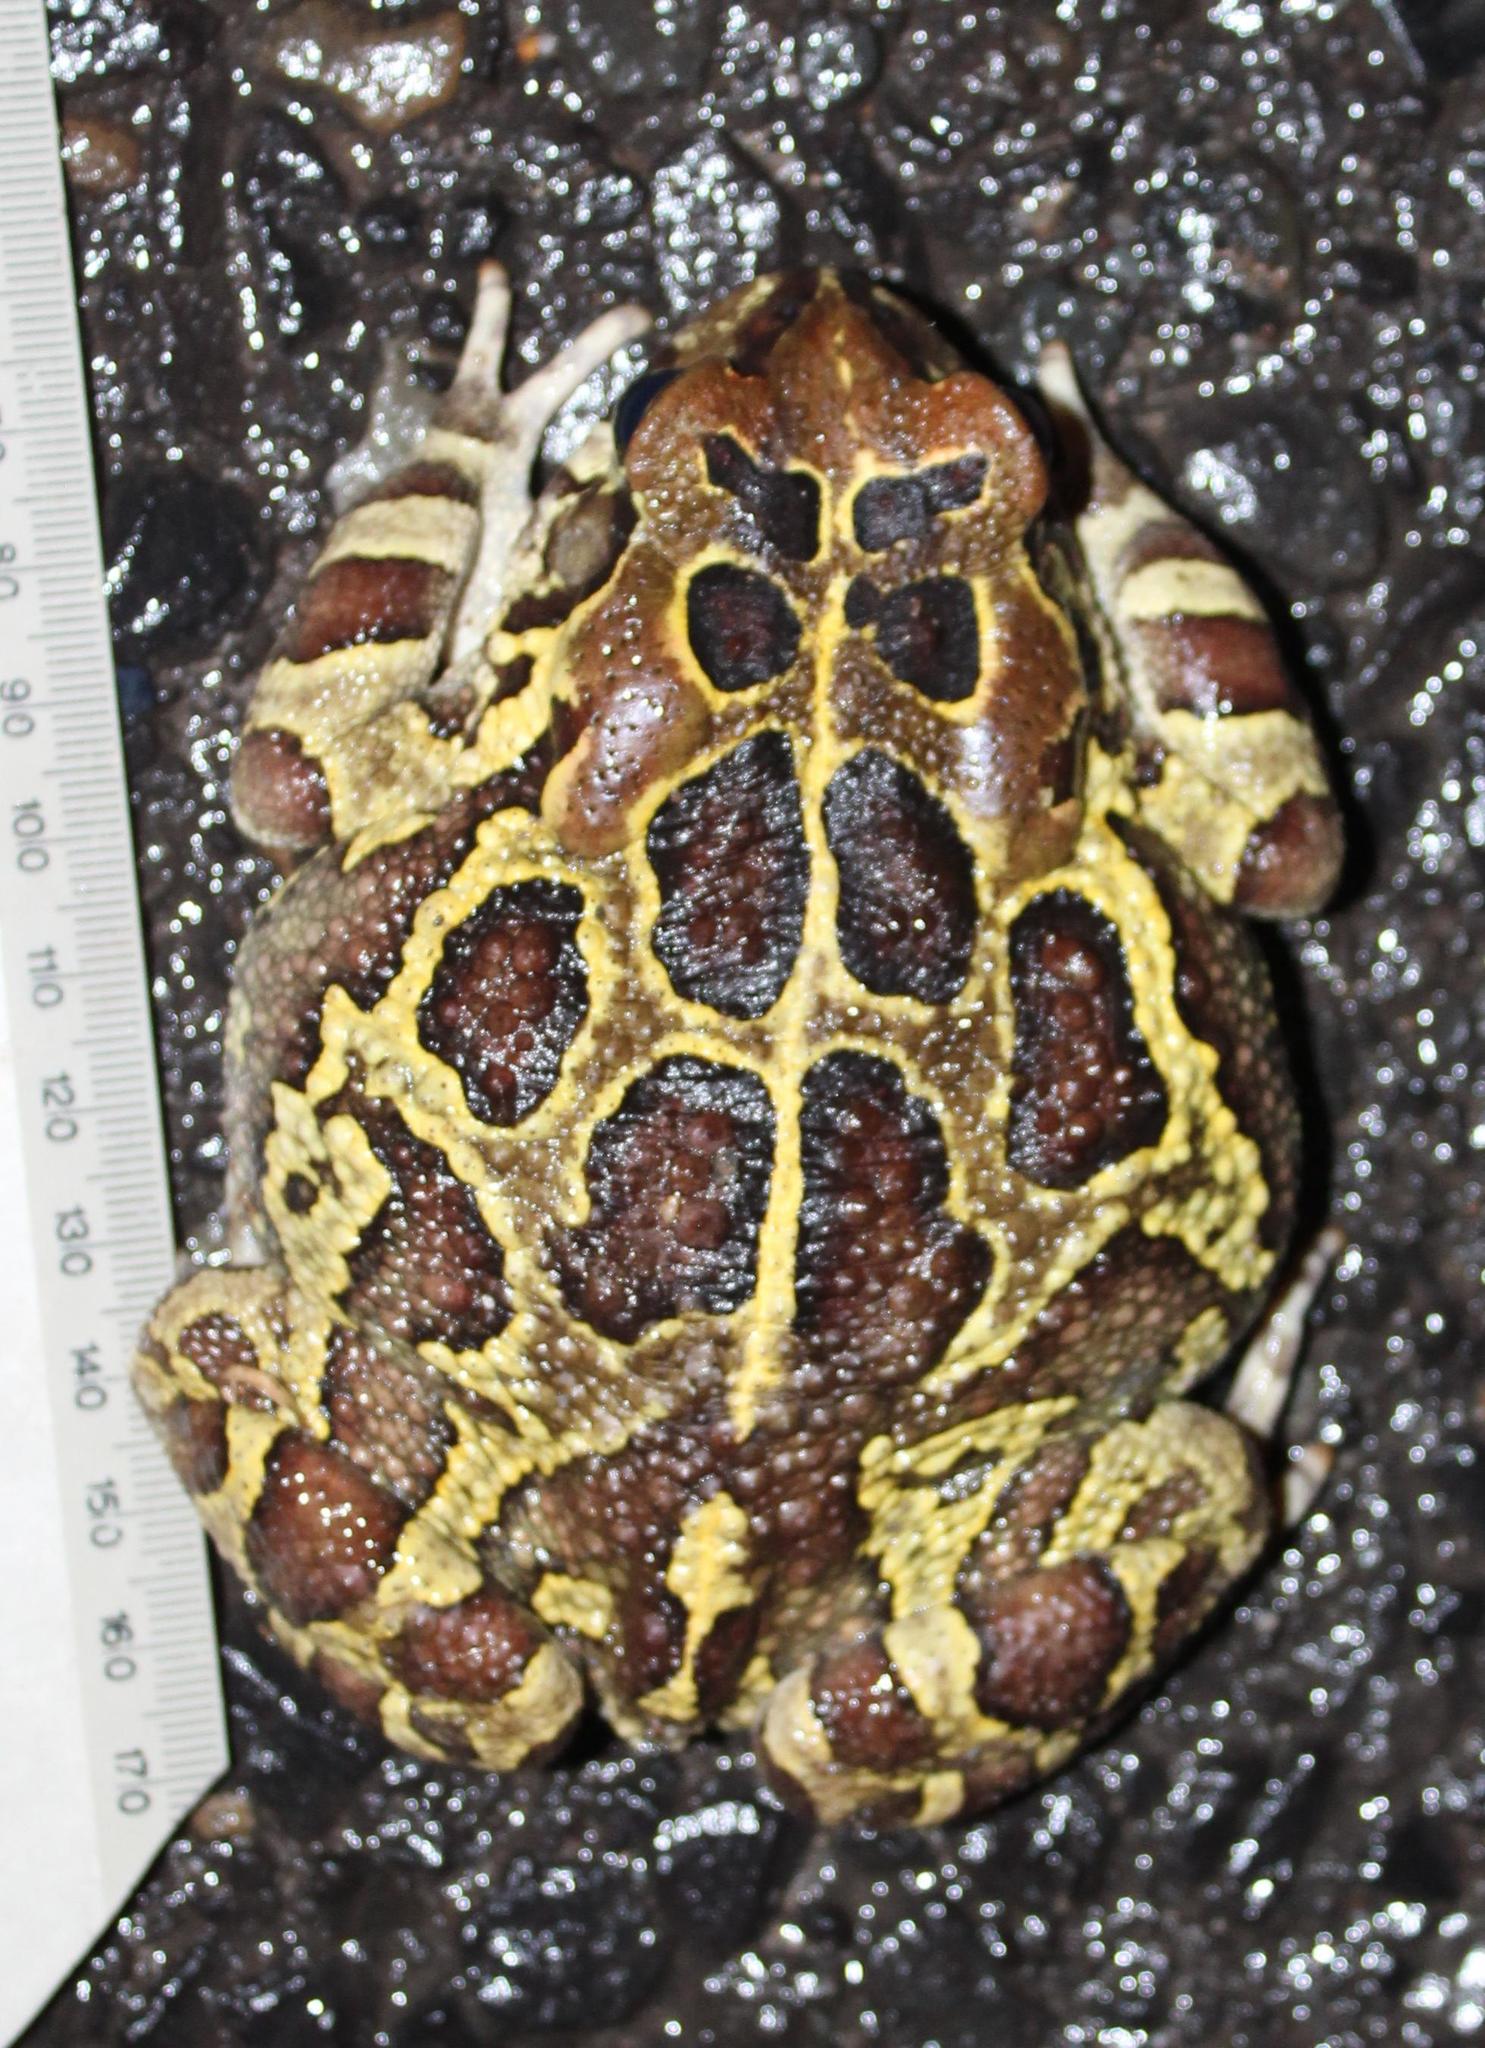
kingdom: Animalia
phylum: Chordata
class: Amphibia
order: Anura
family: Bufonidae
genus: Sclerophrys
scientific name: Sclerophrys pantherina
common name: Panther toad
